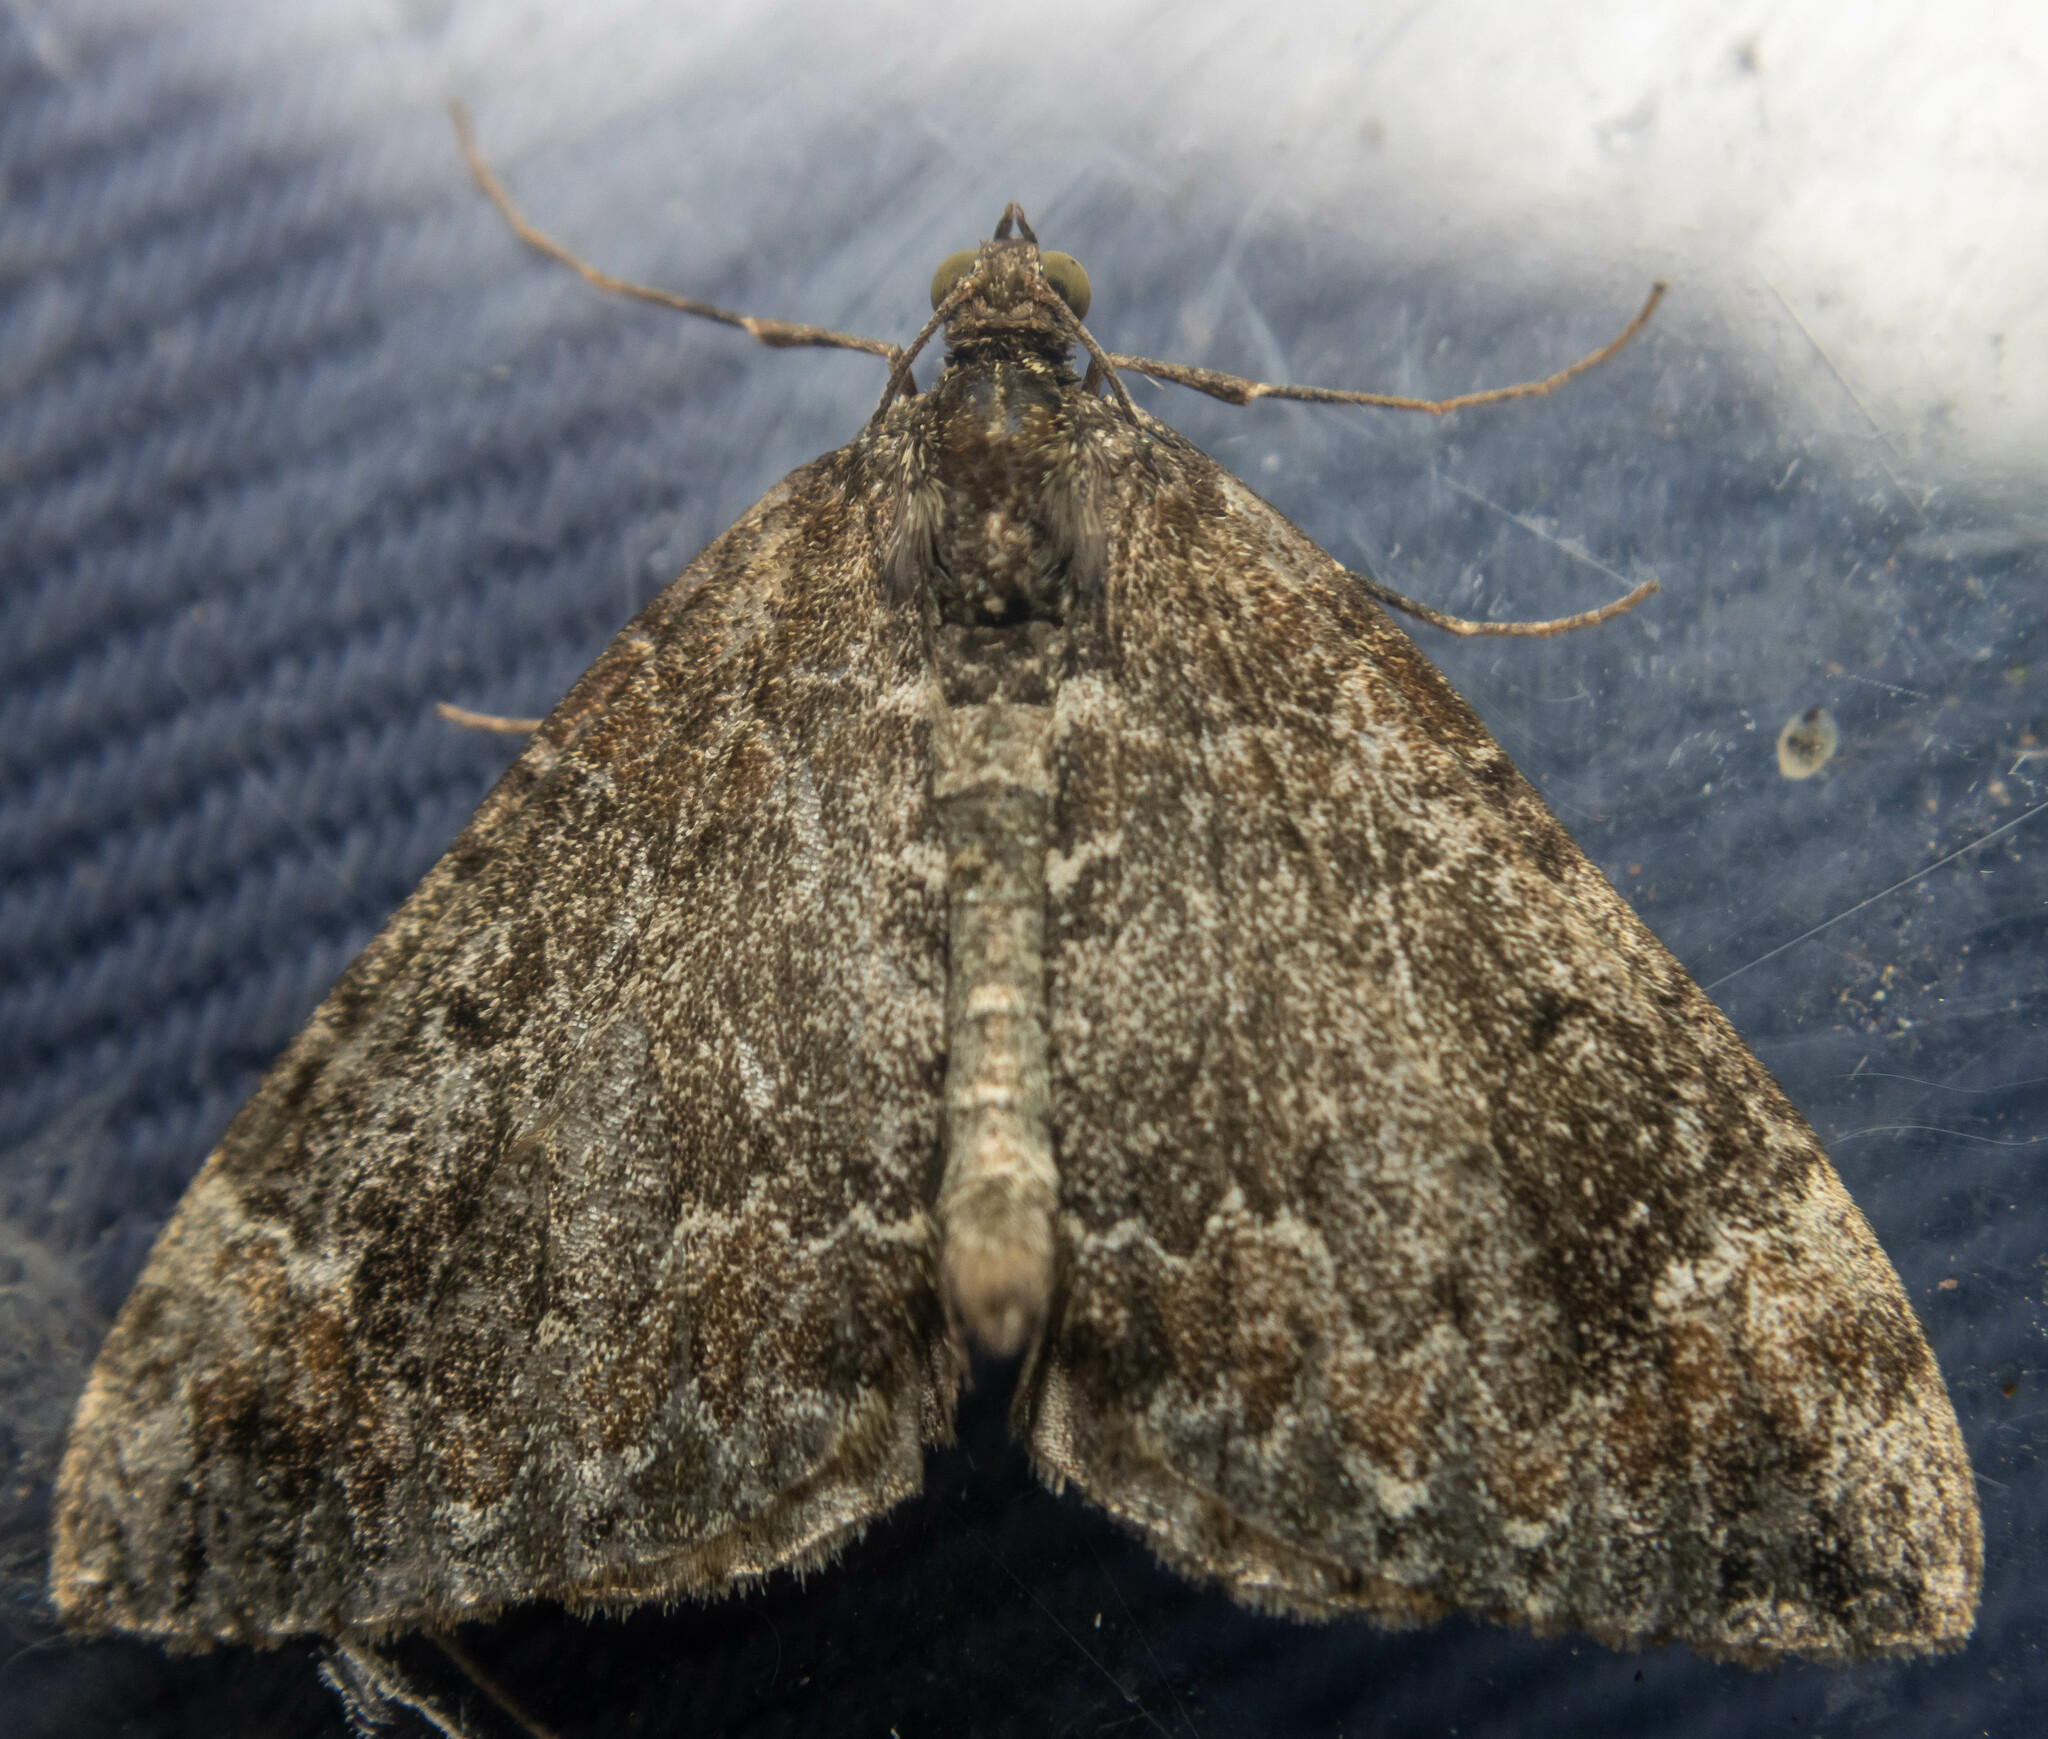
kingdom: Animalia
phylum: Arthropoda
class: Insecta
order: Lepidoptera
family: Geometridae
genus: Dysstroma
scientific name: Dysstroma truncata
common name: Common marbled carpet
